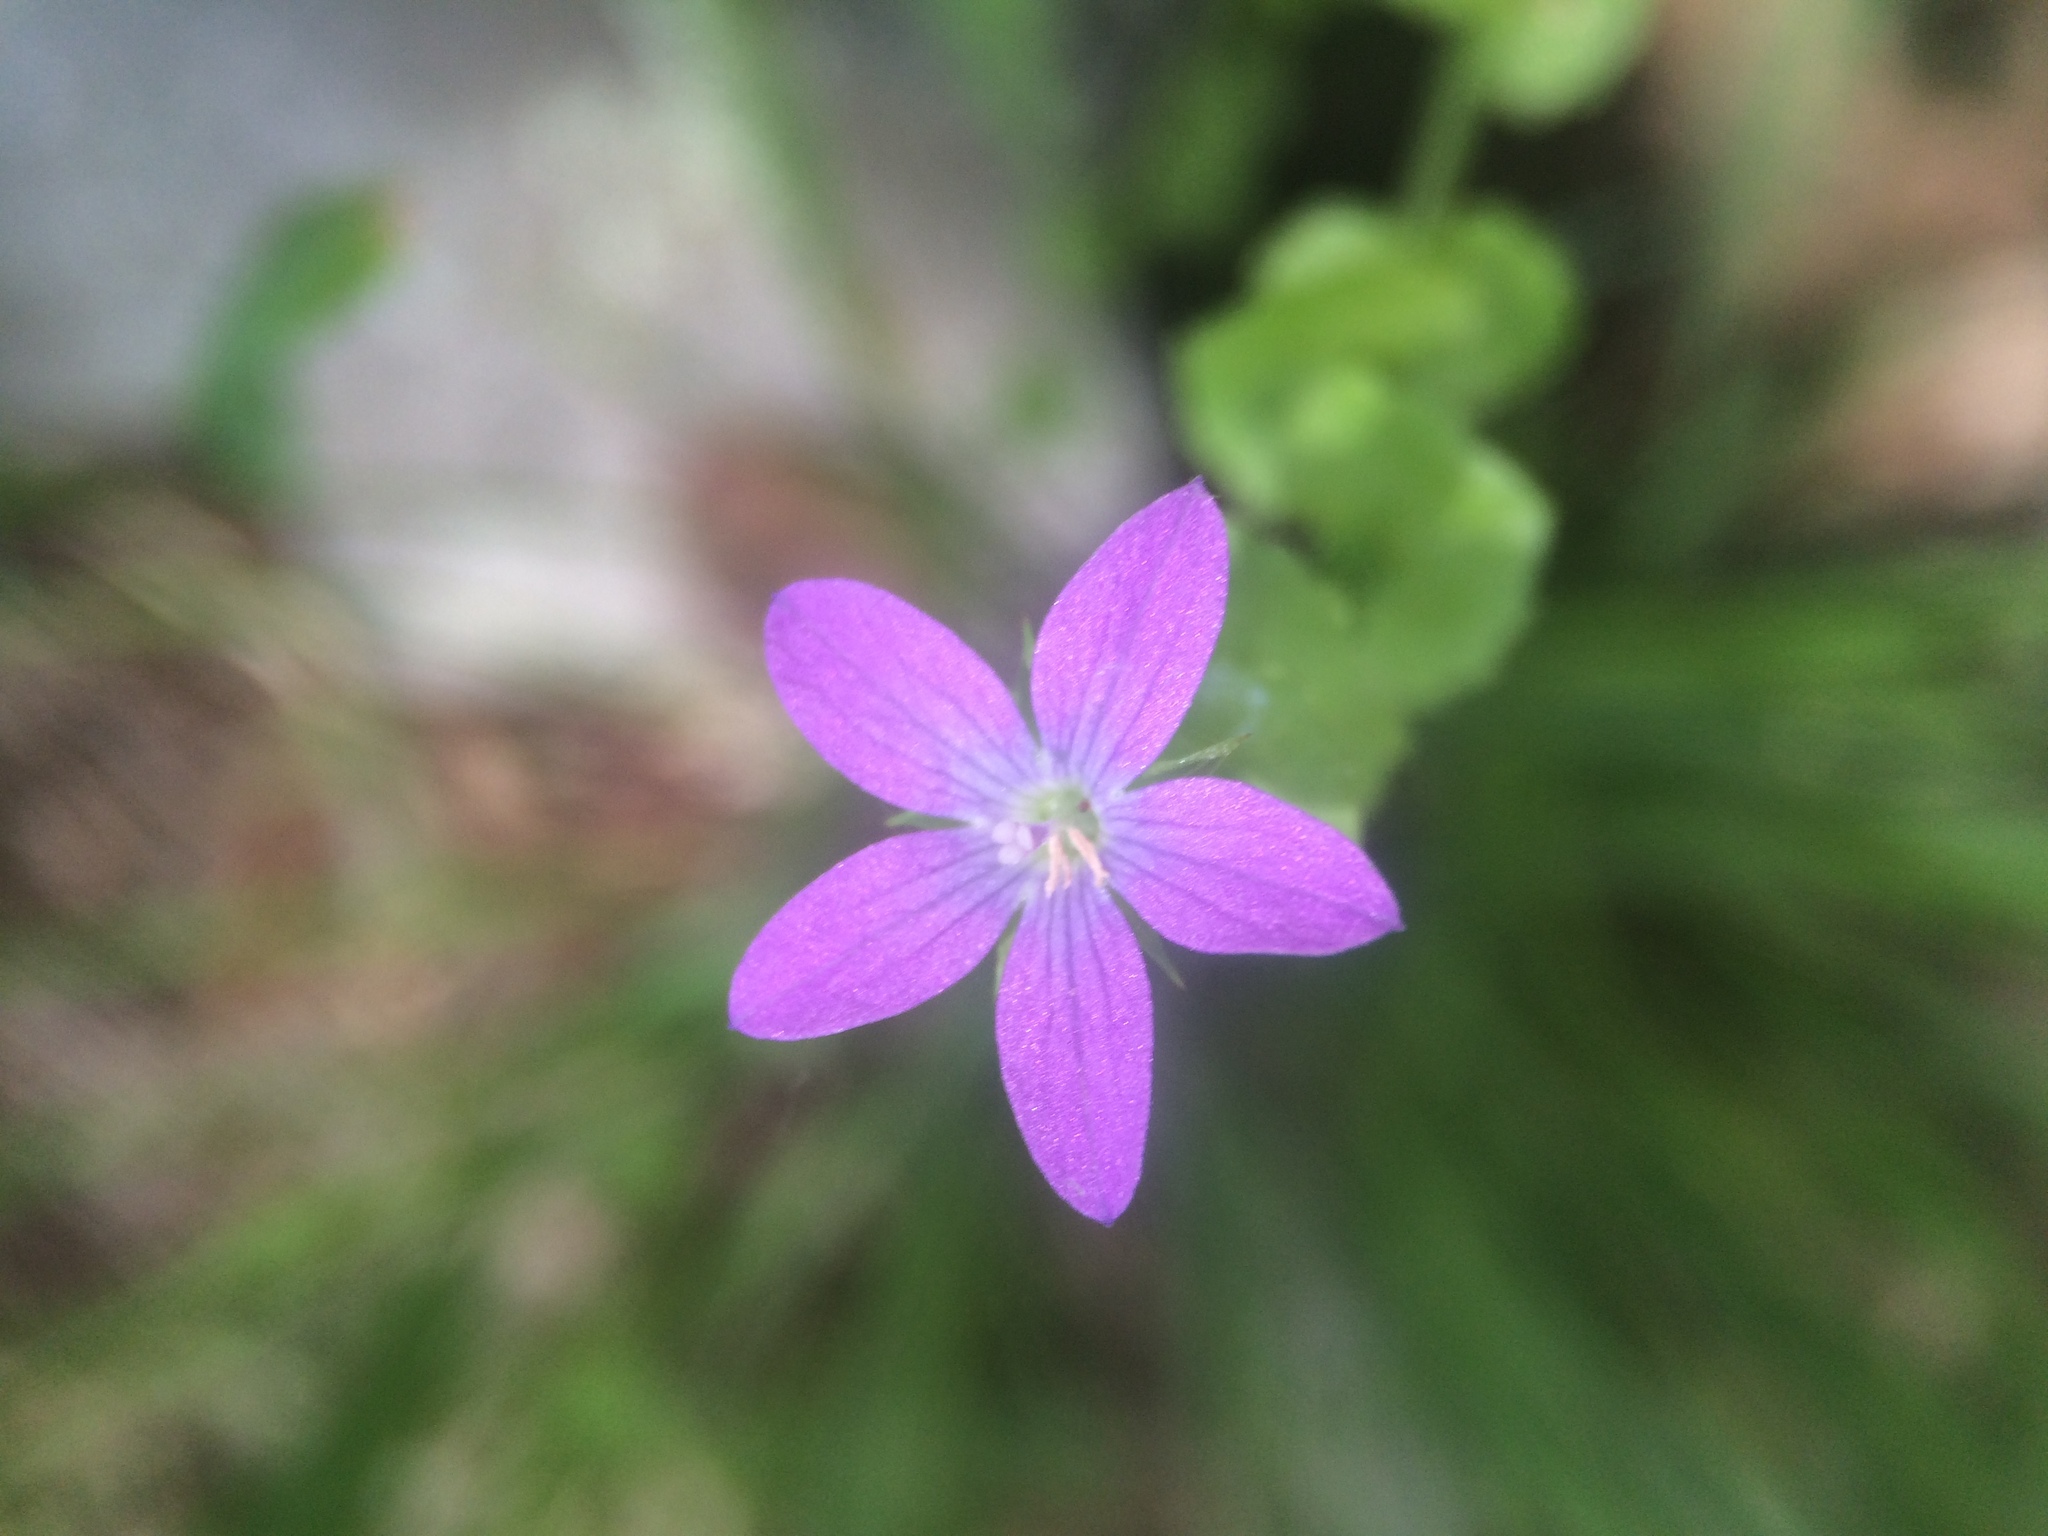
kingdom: Plantae
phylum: Tracheophyta
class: Magnoliopsida
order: Asterales
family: Campanulaceae
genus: Triodanis
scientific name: Triodanis perfoliata
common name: Clasping venus' looking-glass
